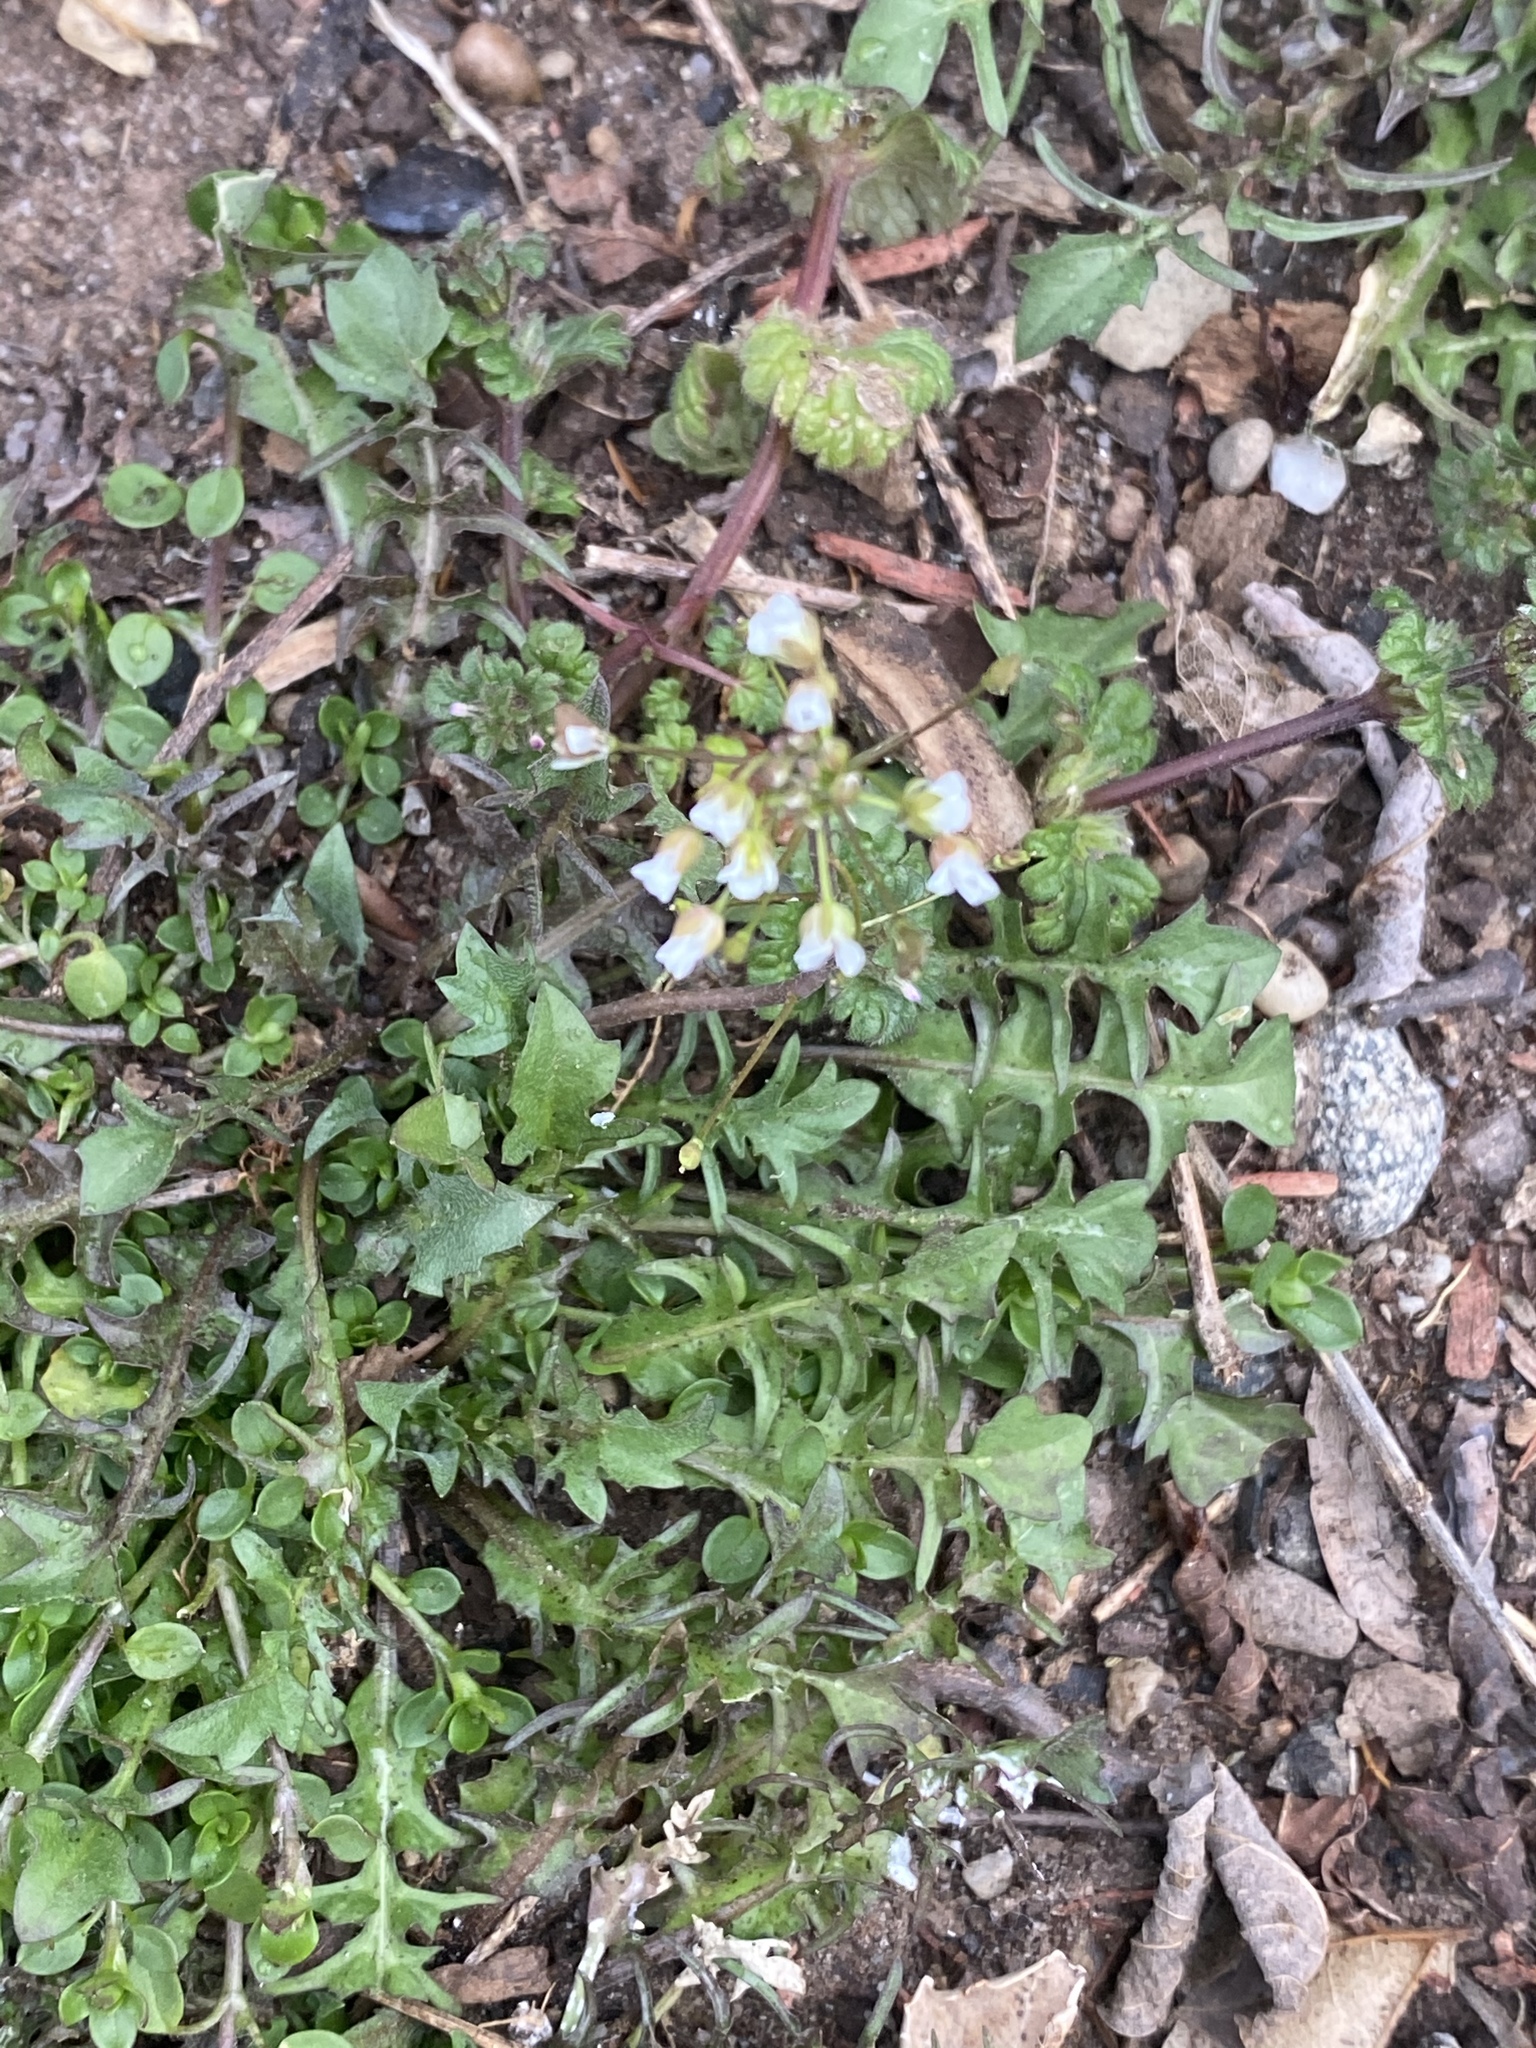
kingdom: Plantae
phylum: Tracheophyta
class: Magnoliopsida
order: Brassicales
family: Brassicaceae
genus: Capsella
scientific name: Capsella bursa-pastoris
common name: Shepherd's purse
